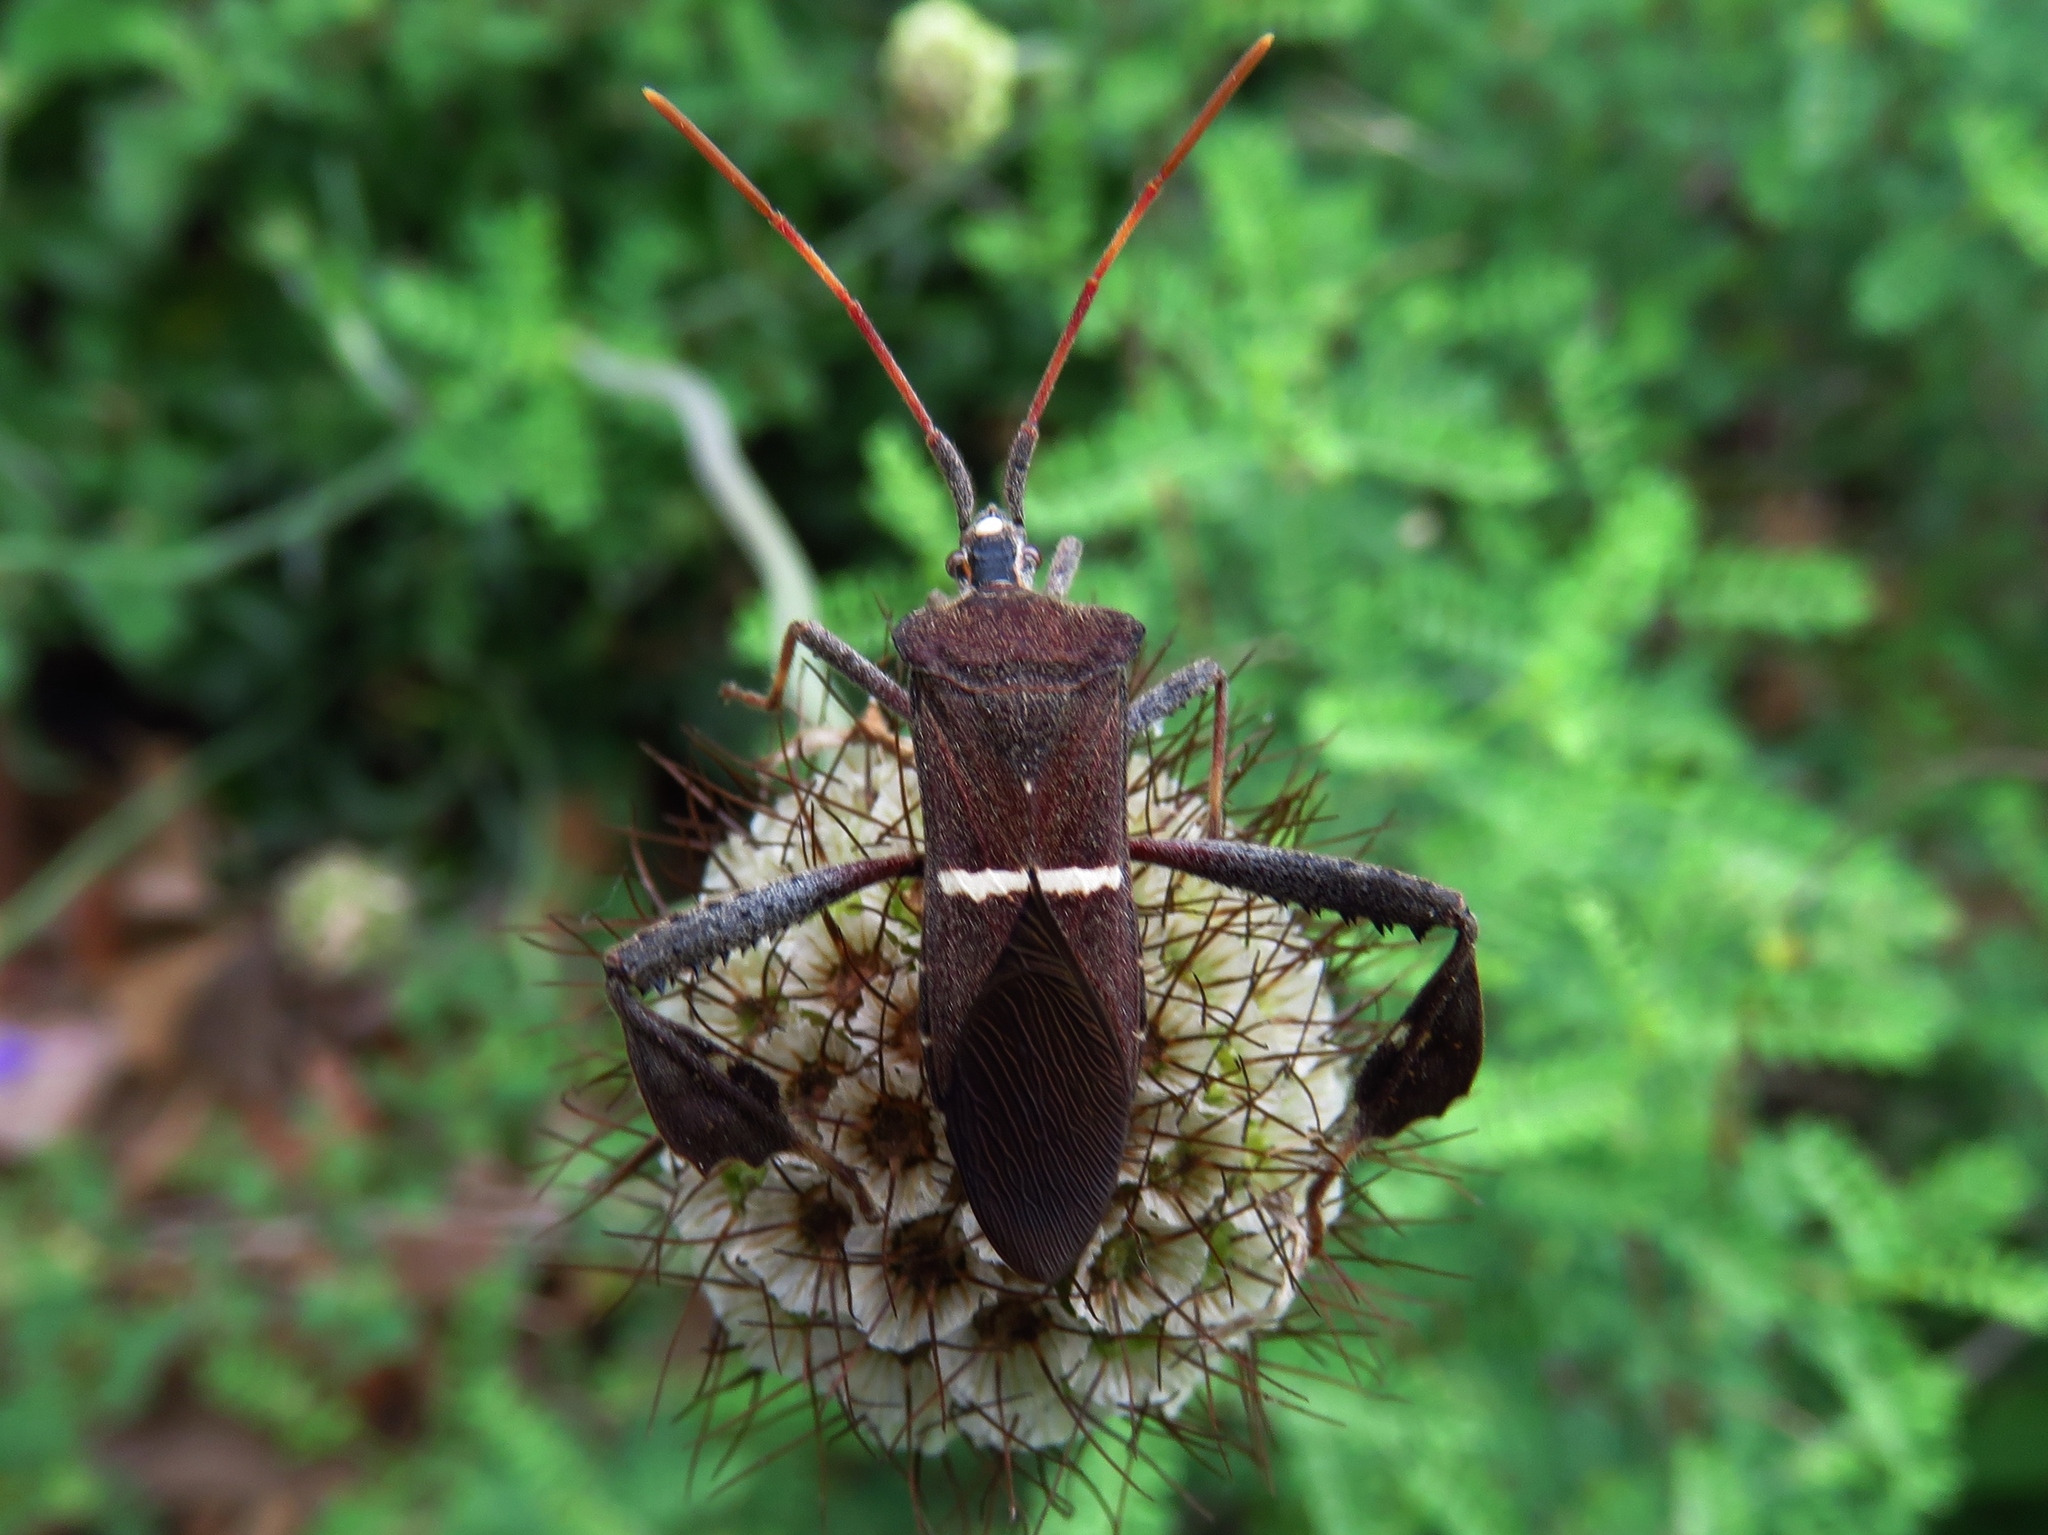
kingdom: Animalia
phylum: Arthropoda
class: Insecta
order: Hemiptera
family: Coreidae
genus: Leptoglossus
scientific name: Leptoglossus phyllopus
